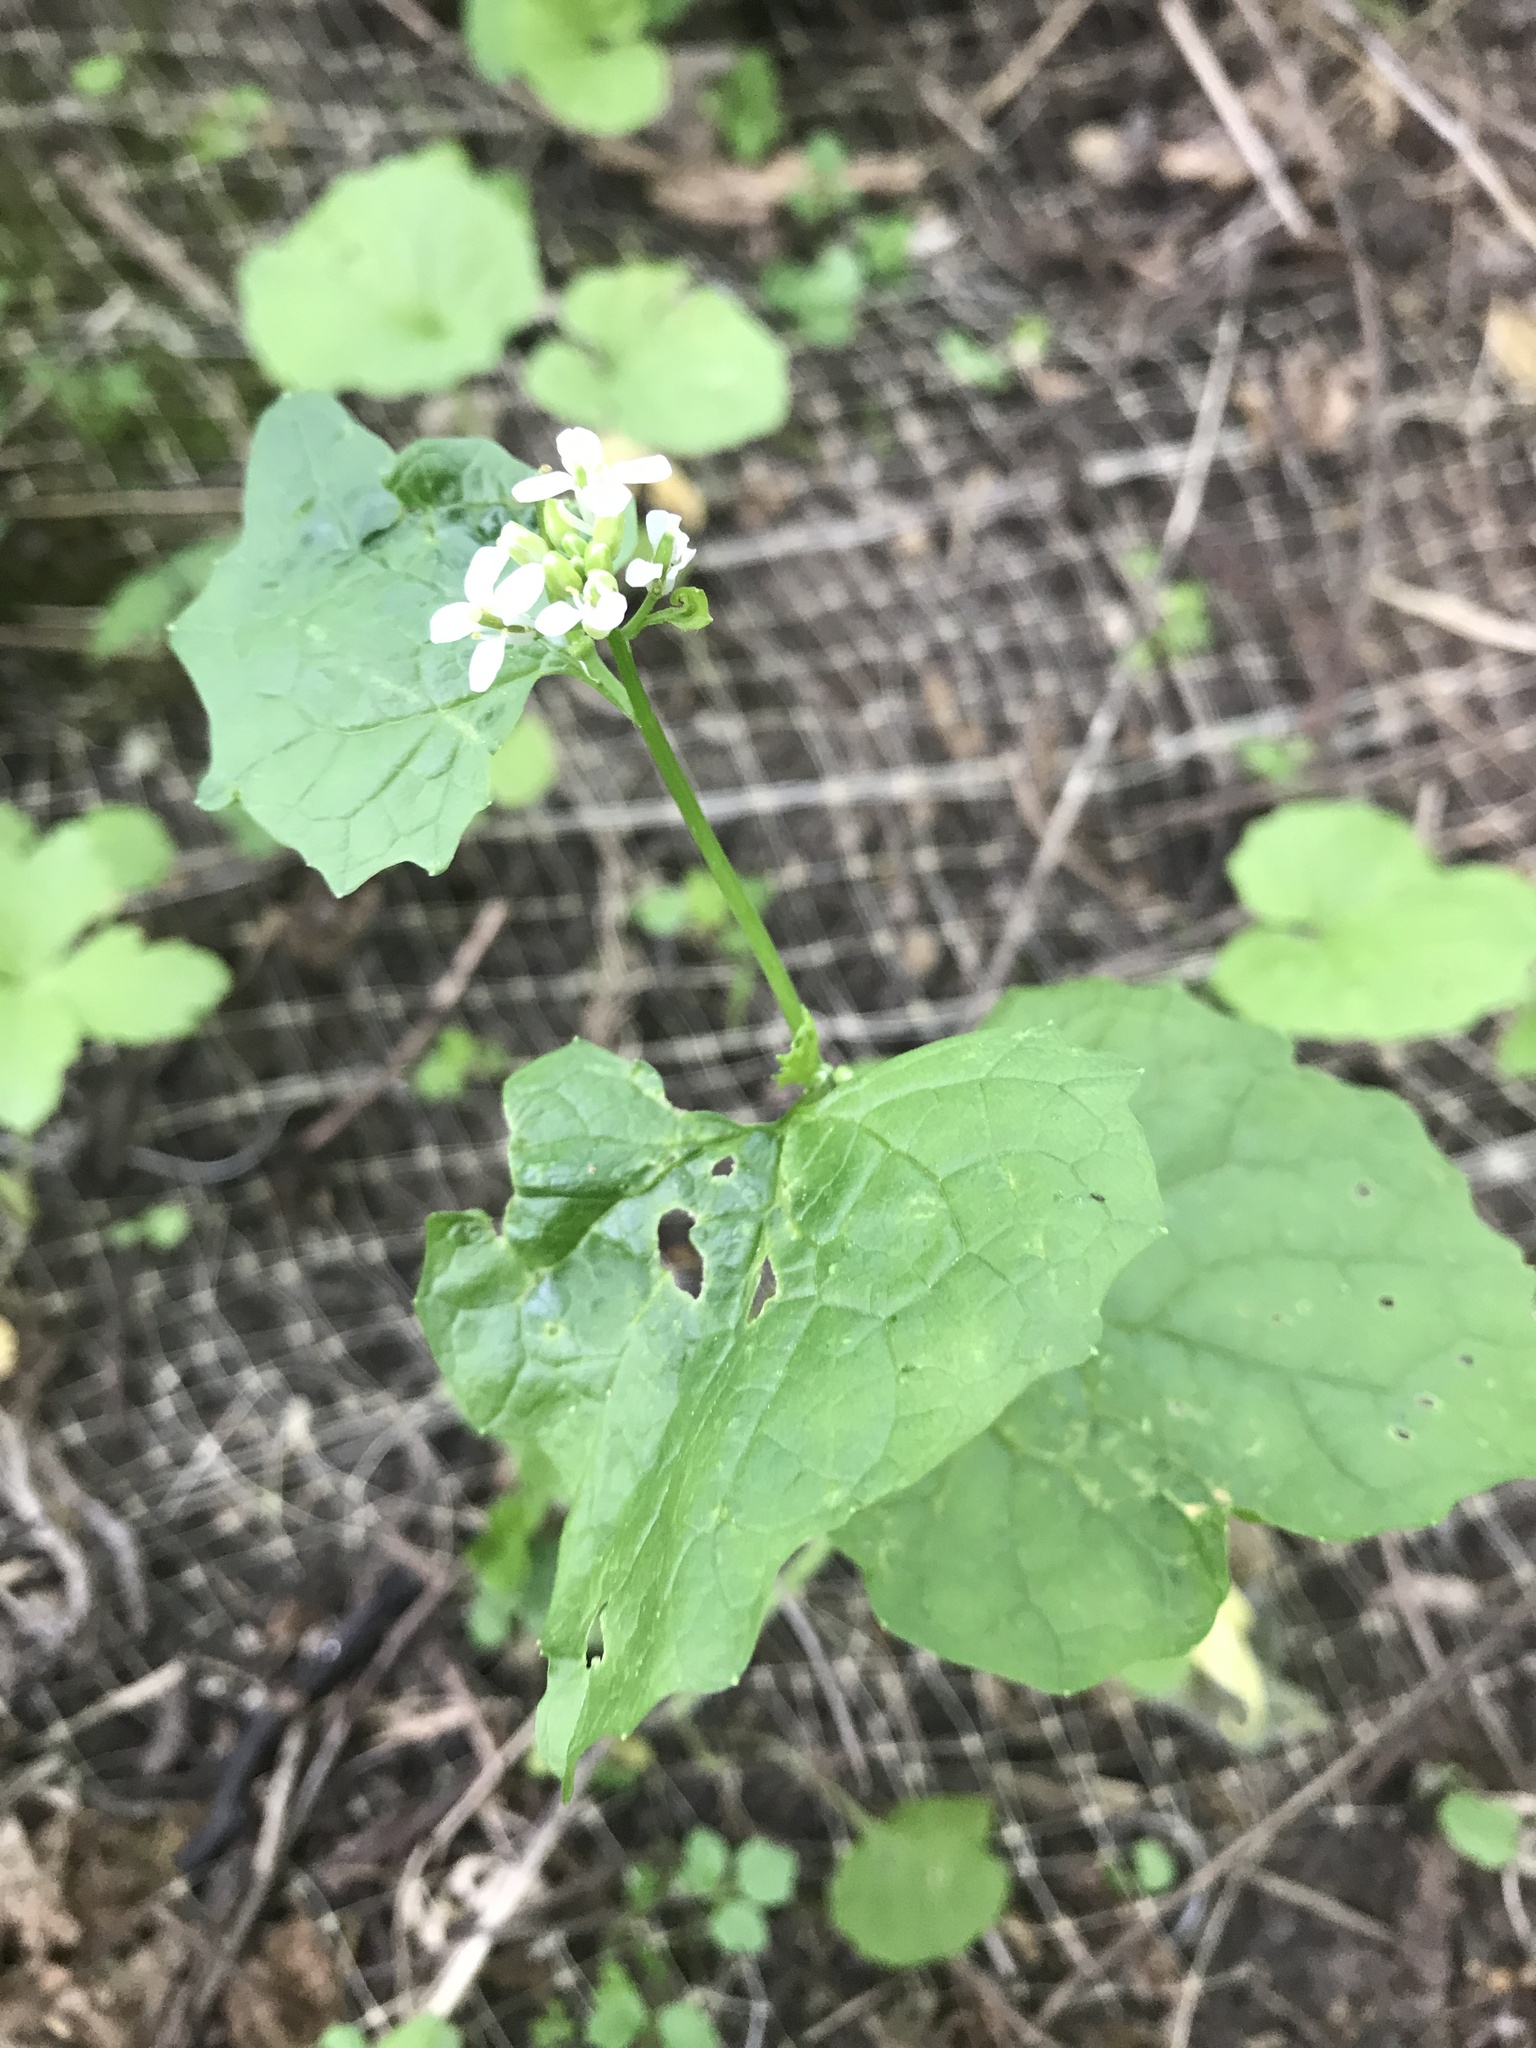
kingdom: Plantae
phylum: Tracheophyta
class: Magnoliopsida
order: Brassicales
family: Brassicaceae
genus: Alliaria
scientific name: Alliaria petiolata
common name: Garlic mustard
